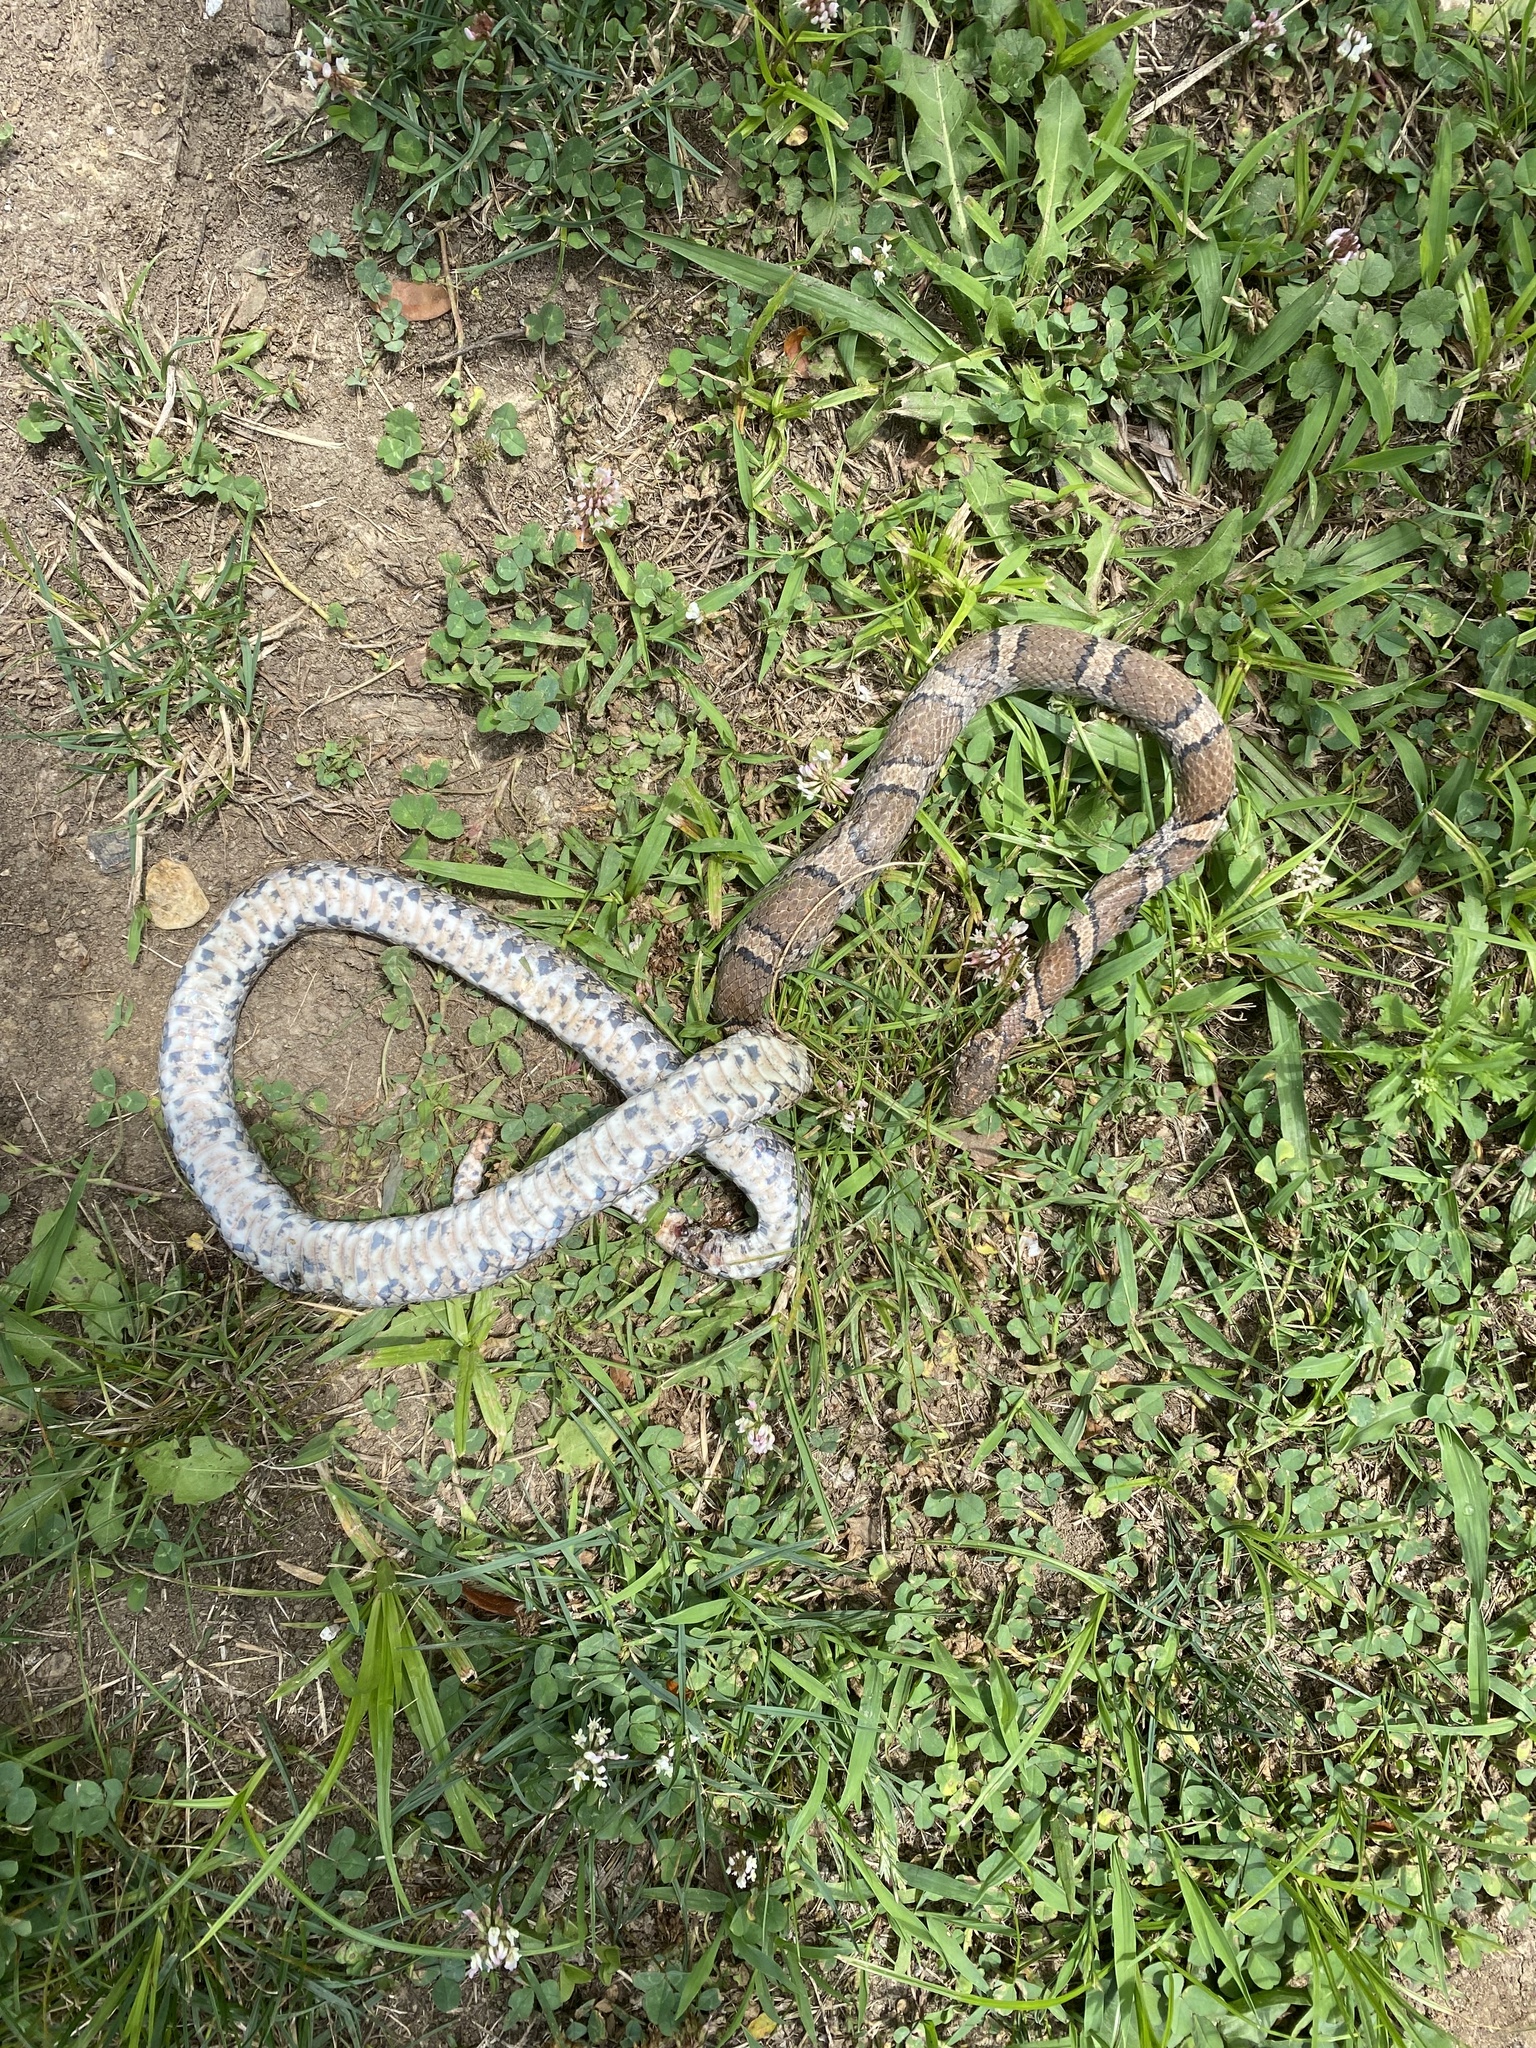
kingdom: Animalia
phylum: Chordata
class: Squamata
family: Colubridae
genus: Lampropeltis
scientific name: Lampropeltis triangulum
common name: Eastern milksnake
